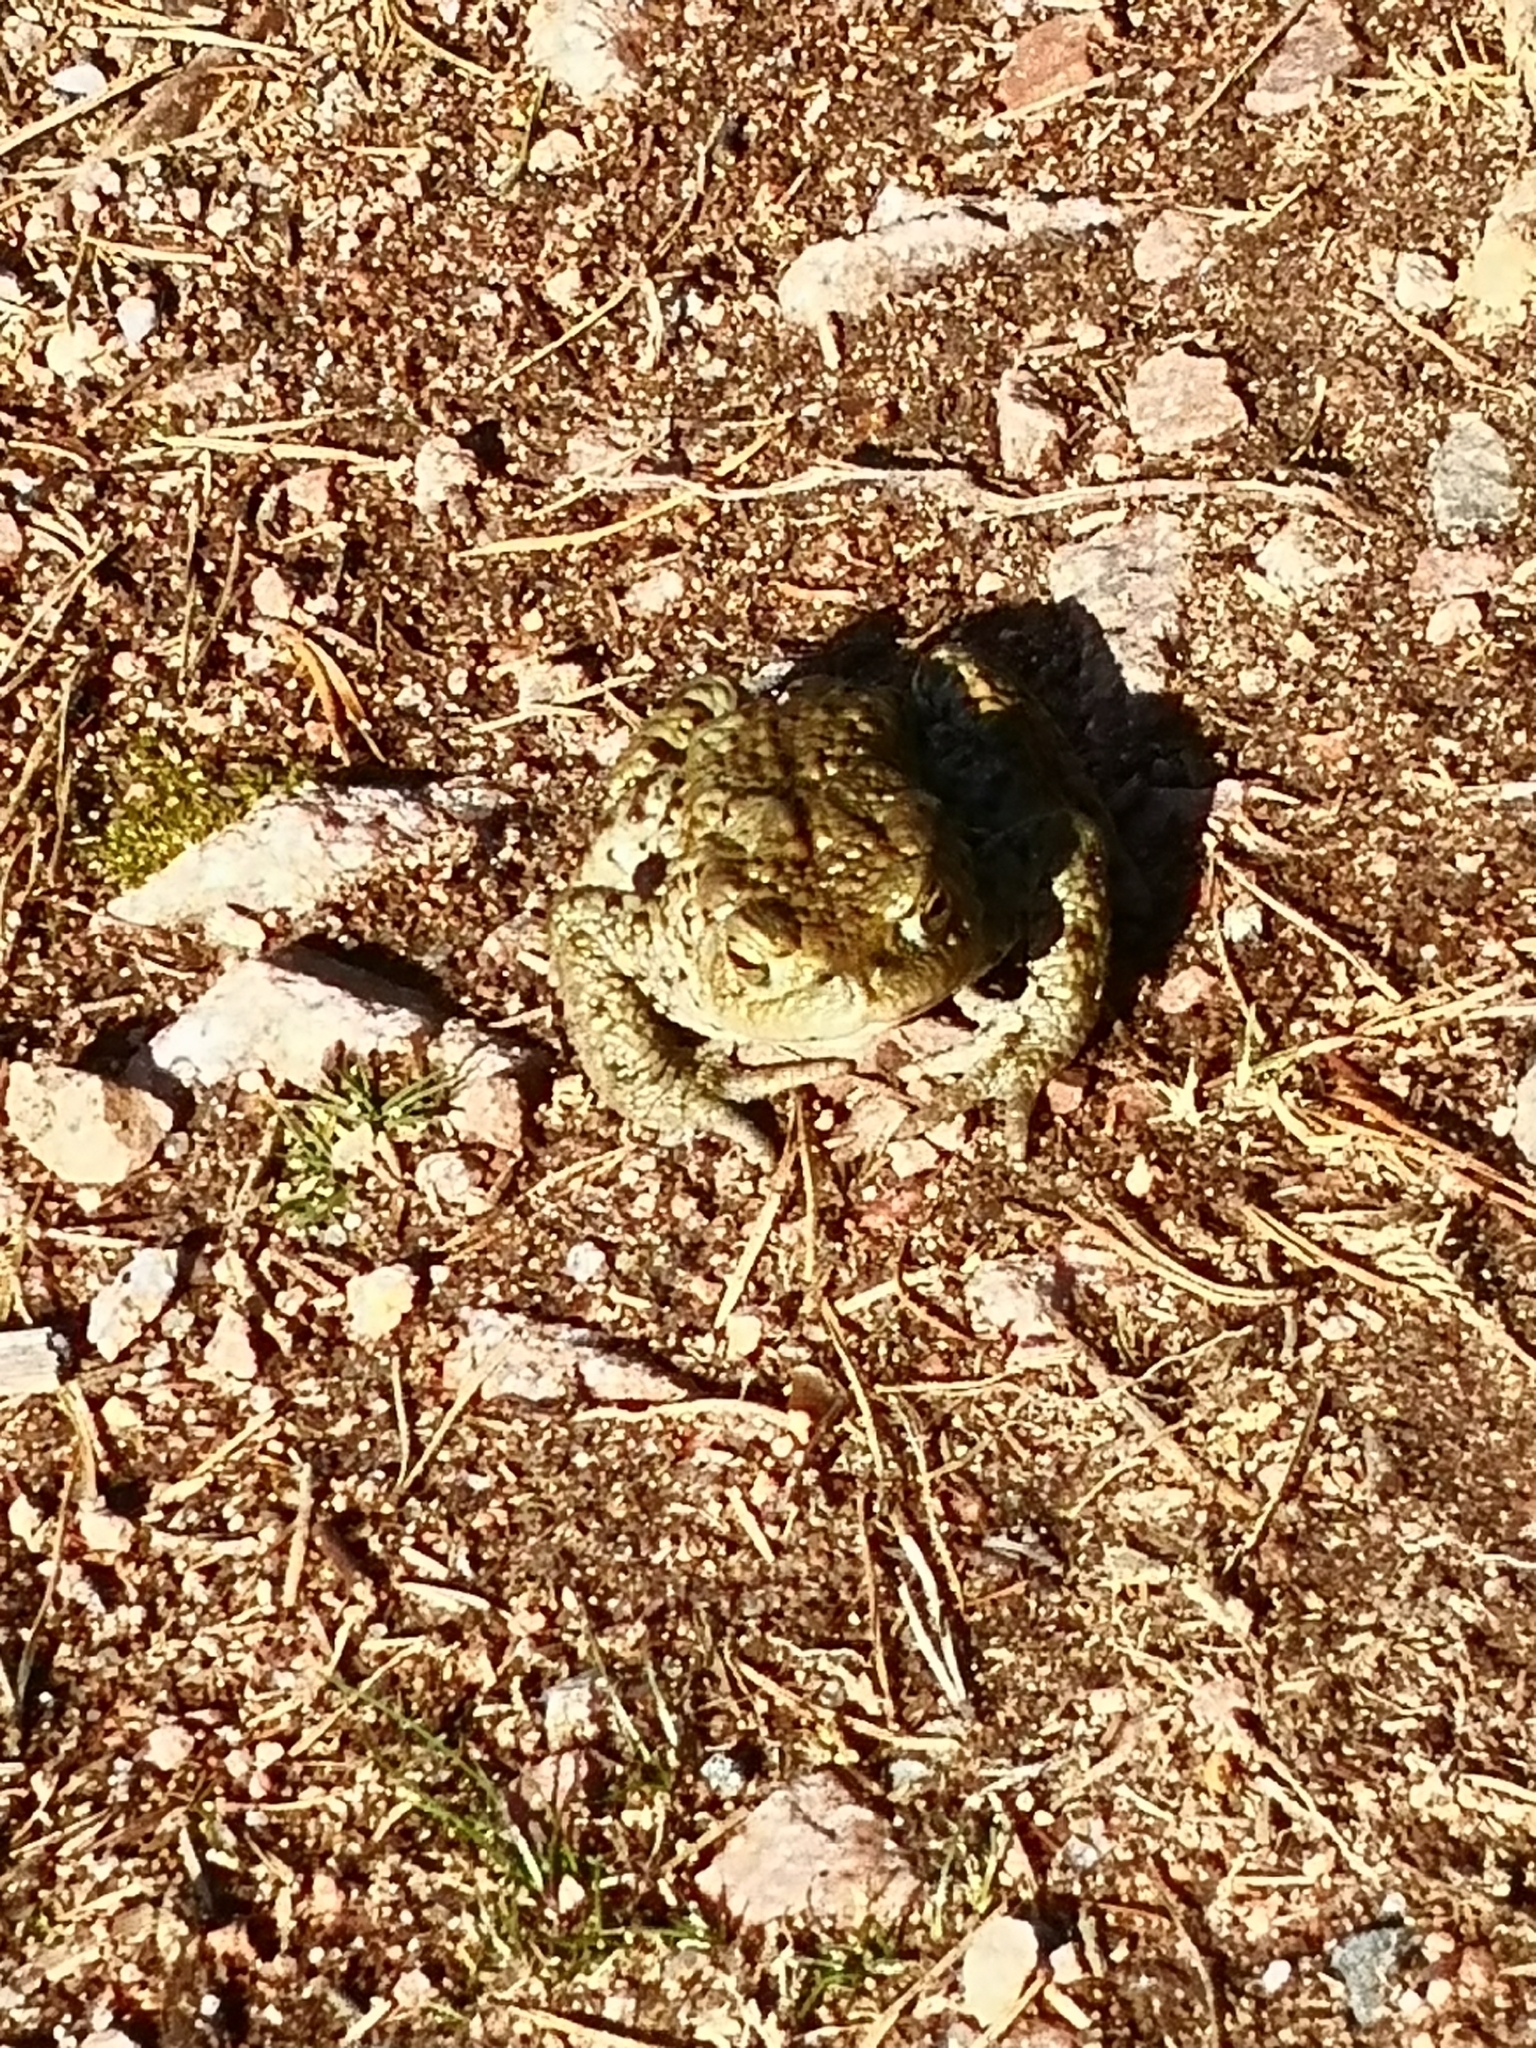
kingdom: Animalia
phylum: Chordata
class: Amphibia
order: Anura
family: Bufonidae
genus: Bufo
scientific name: Bufo bufo
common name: Common toad
